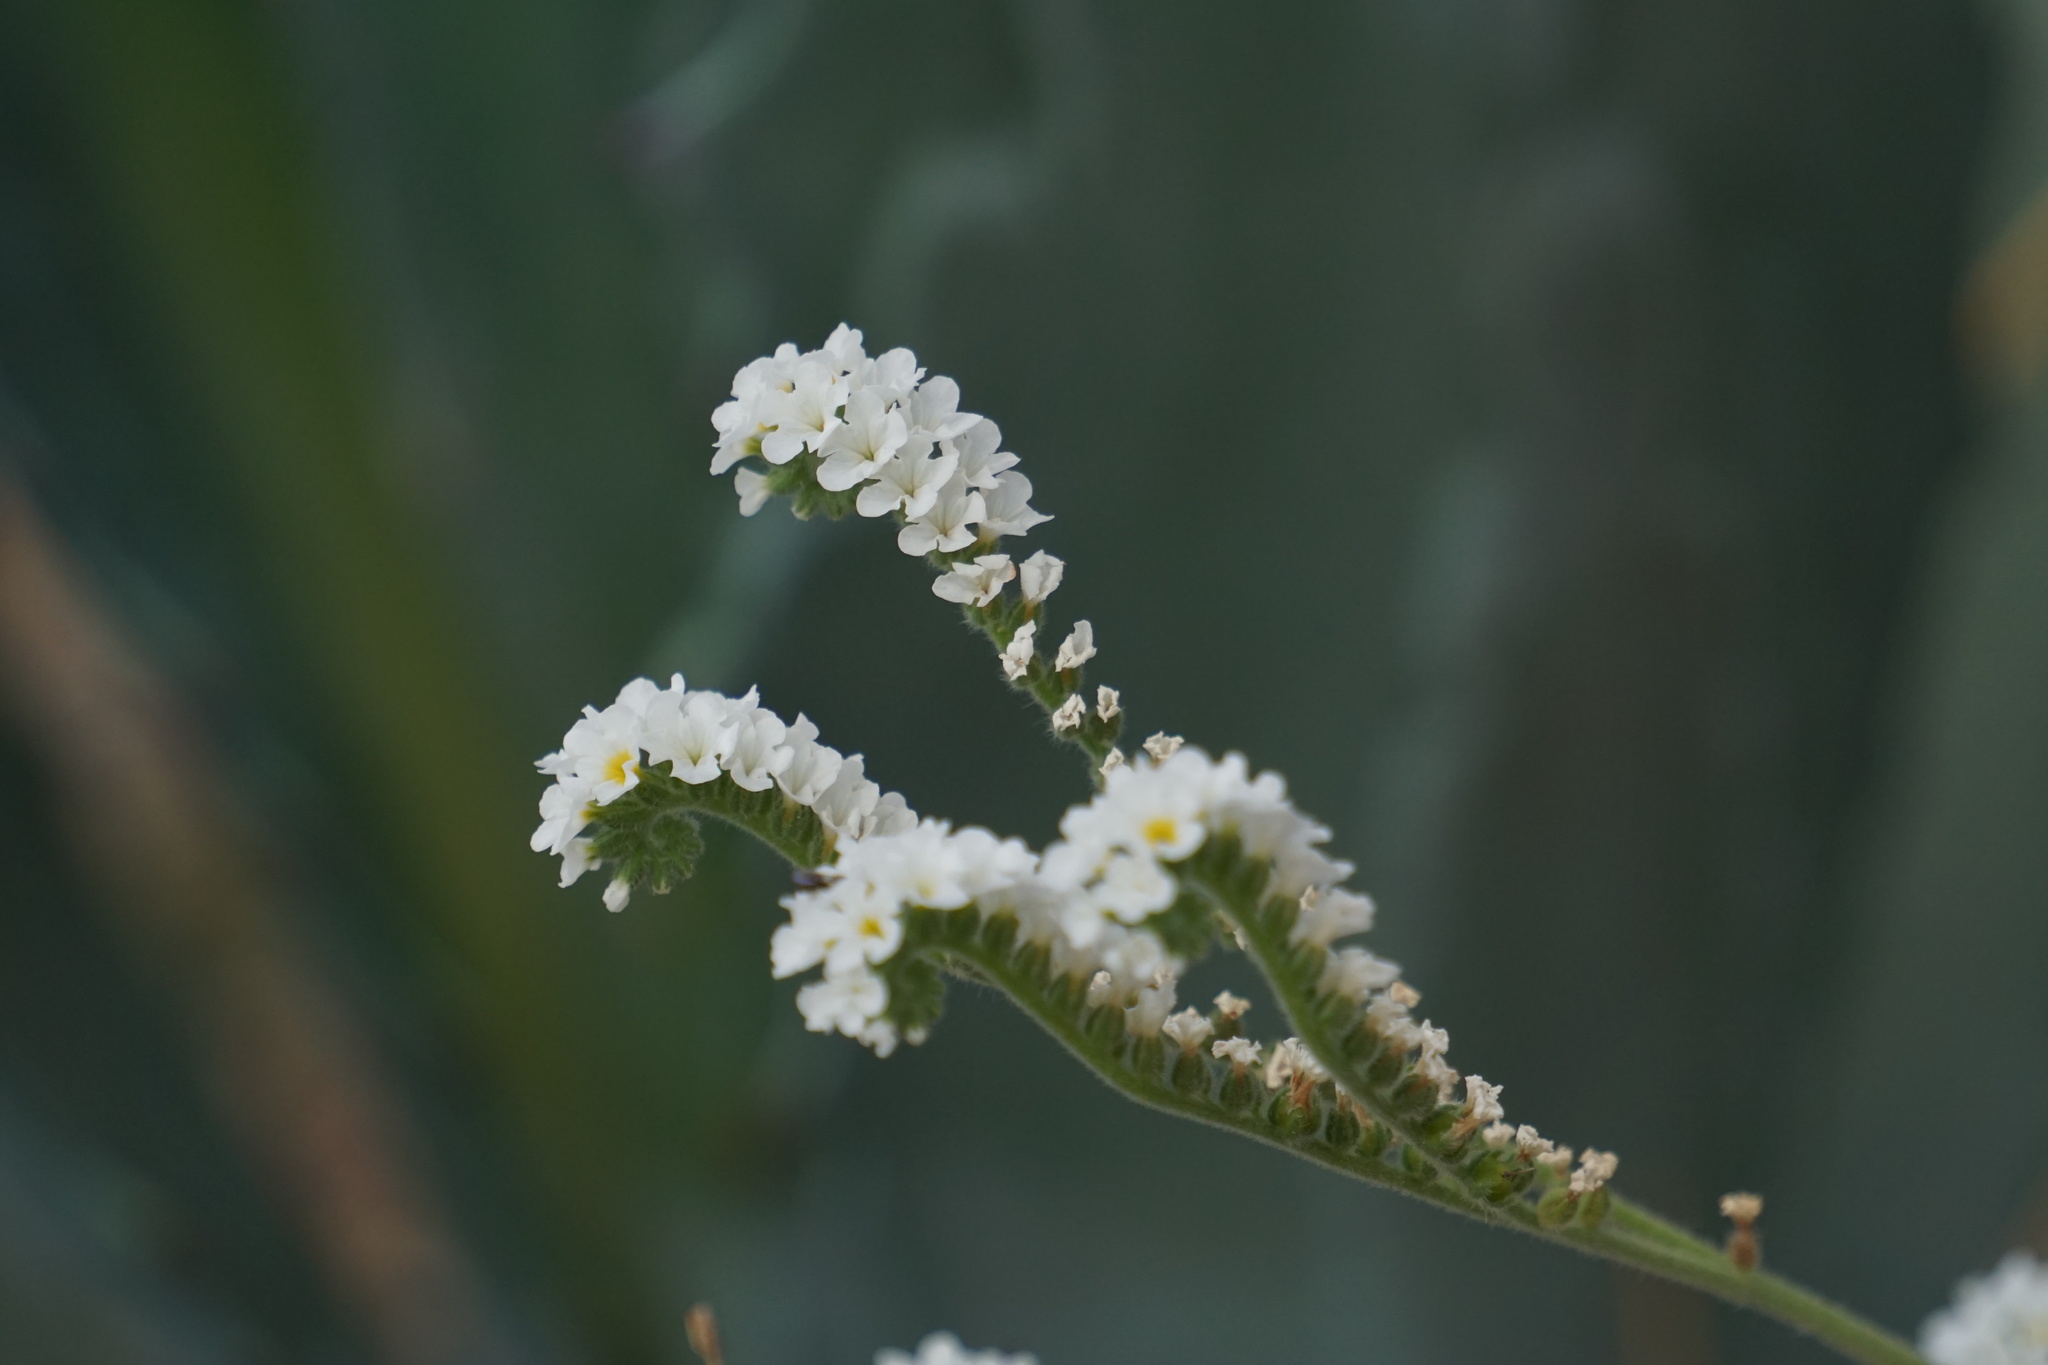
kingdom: Plantae
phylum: Tracheophyta
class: Magnoliopsida
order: Boraginales
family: Heliotropiaceae
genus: Heliotropium
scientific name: Heliotropium europaeum
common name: European heliotrope
